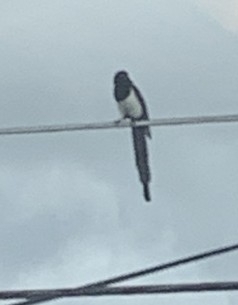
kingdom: Animalia
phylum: Chordata
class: Aves
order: Passeriformes
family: Corvidae
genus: Pica
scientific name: Pica hudsonia
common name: Black-billed magpie
